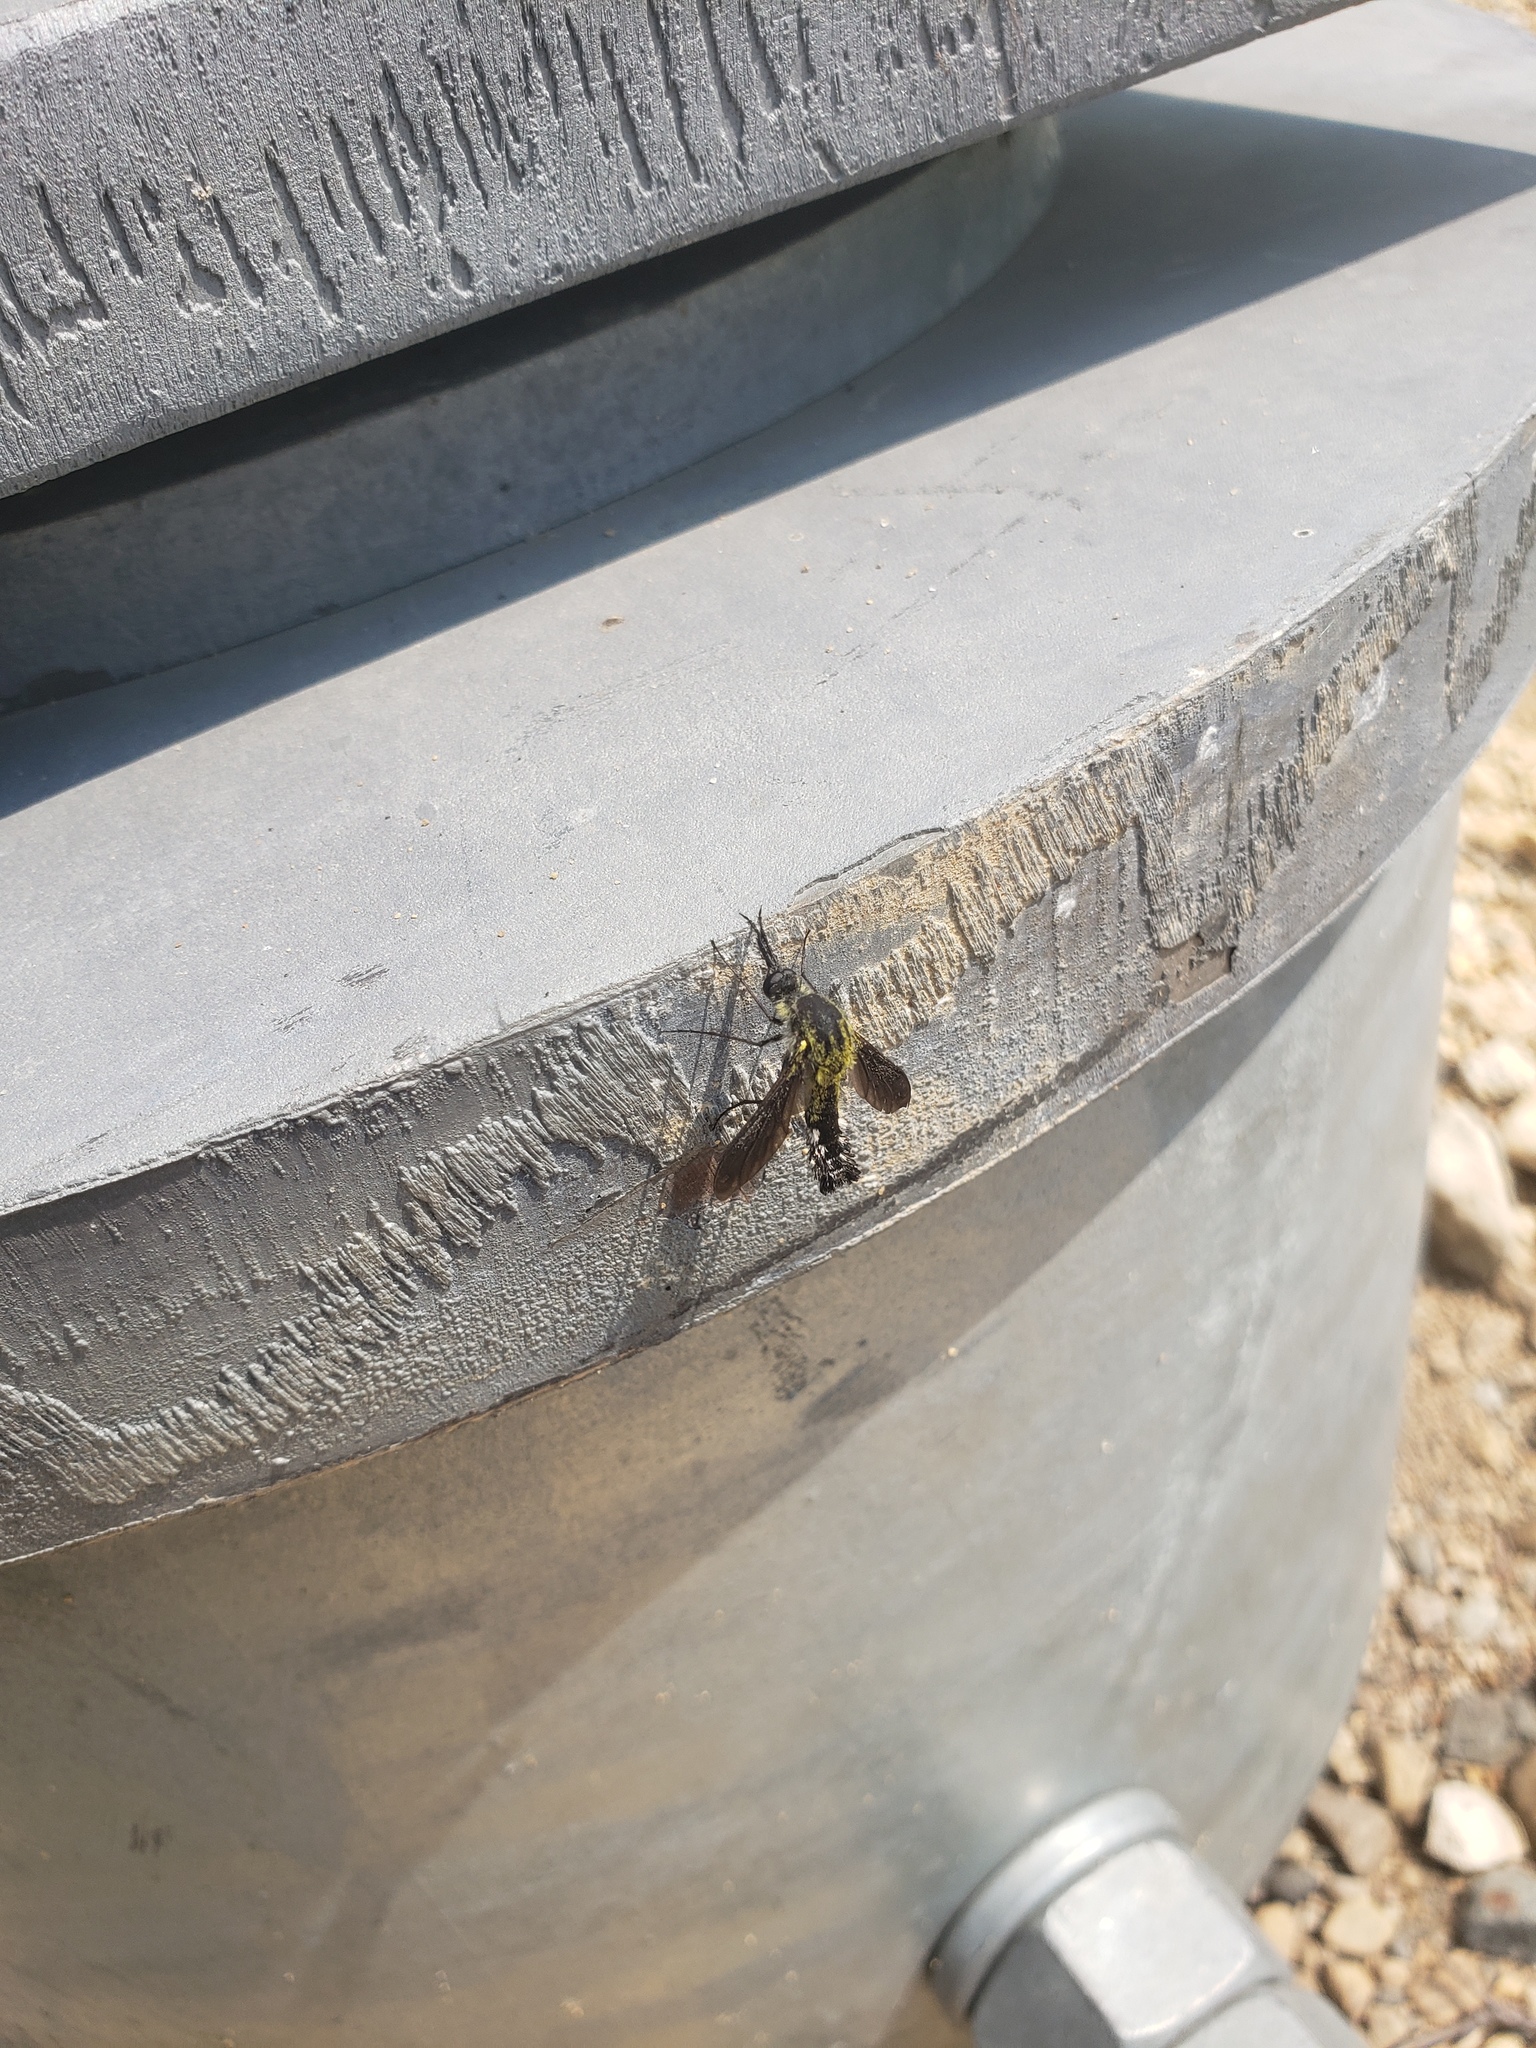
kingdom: Animalia
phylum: Arthropoda
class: Insecta
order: Diptera
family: Bombyliidae
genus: Lepidophora
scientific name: Lepidophora lutea
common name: Hunchback bee fly
